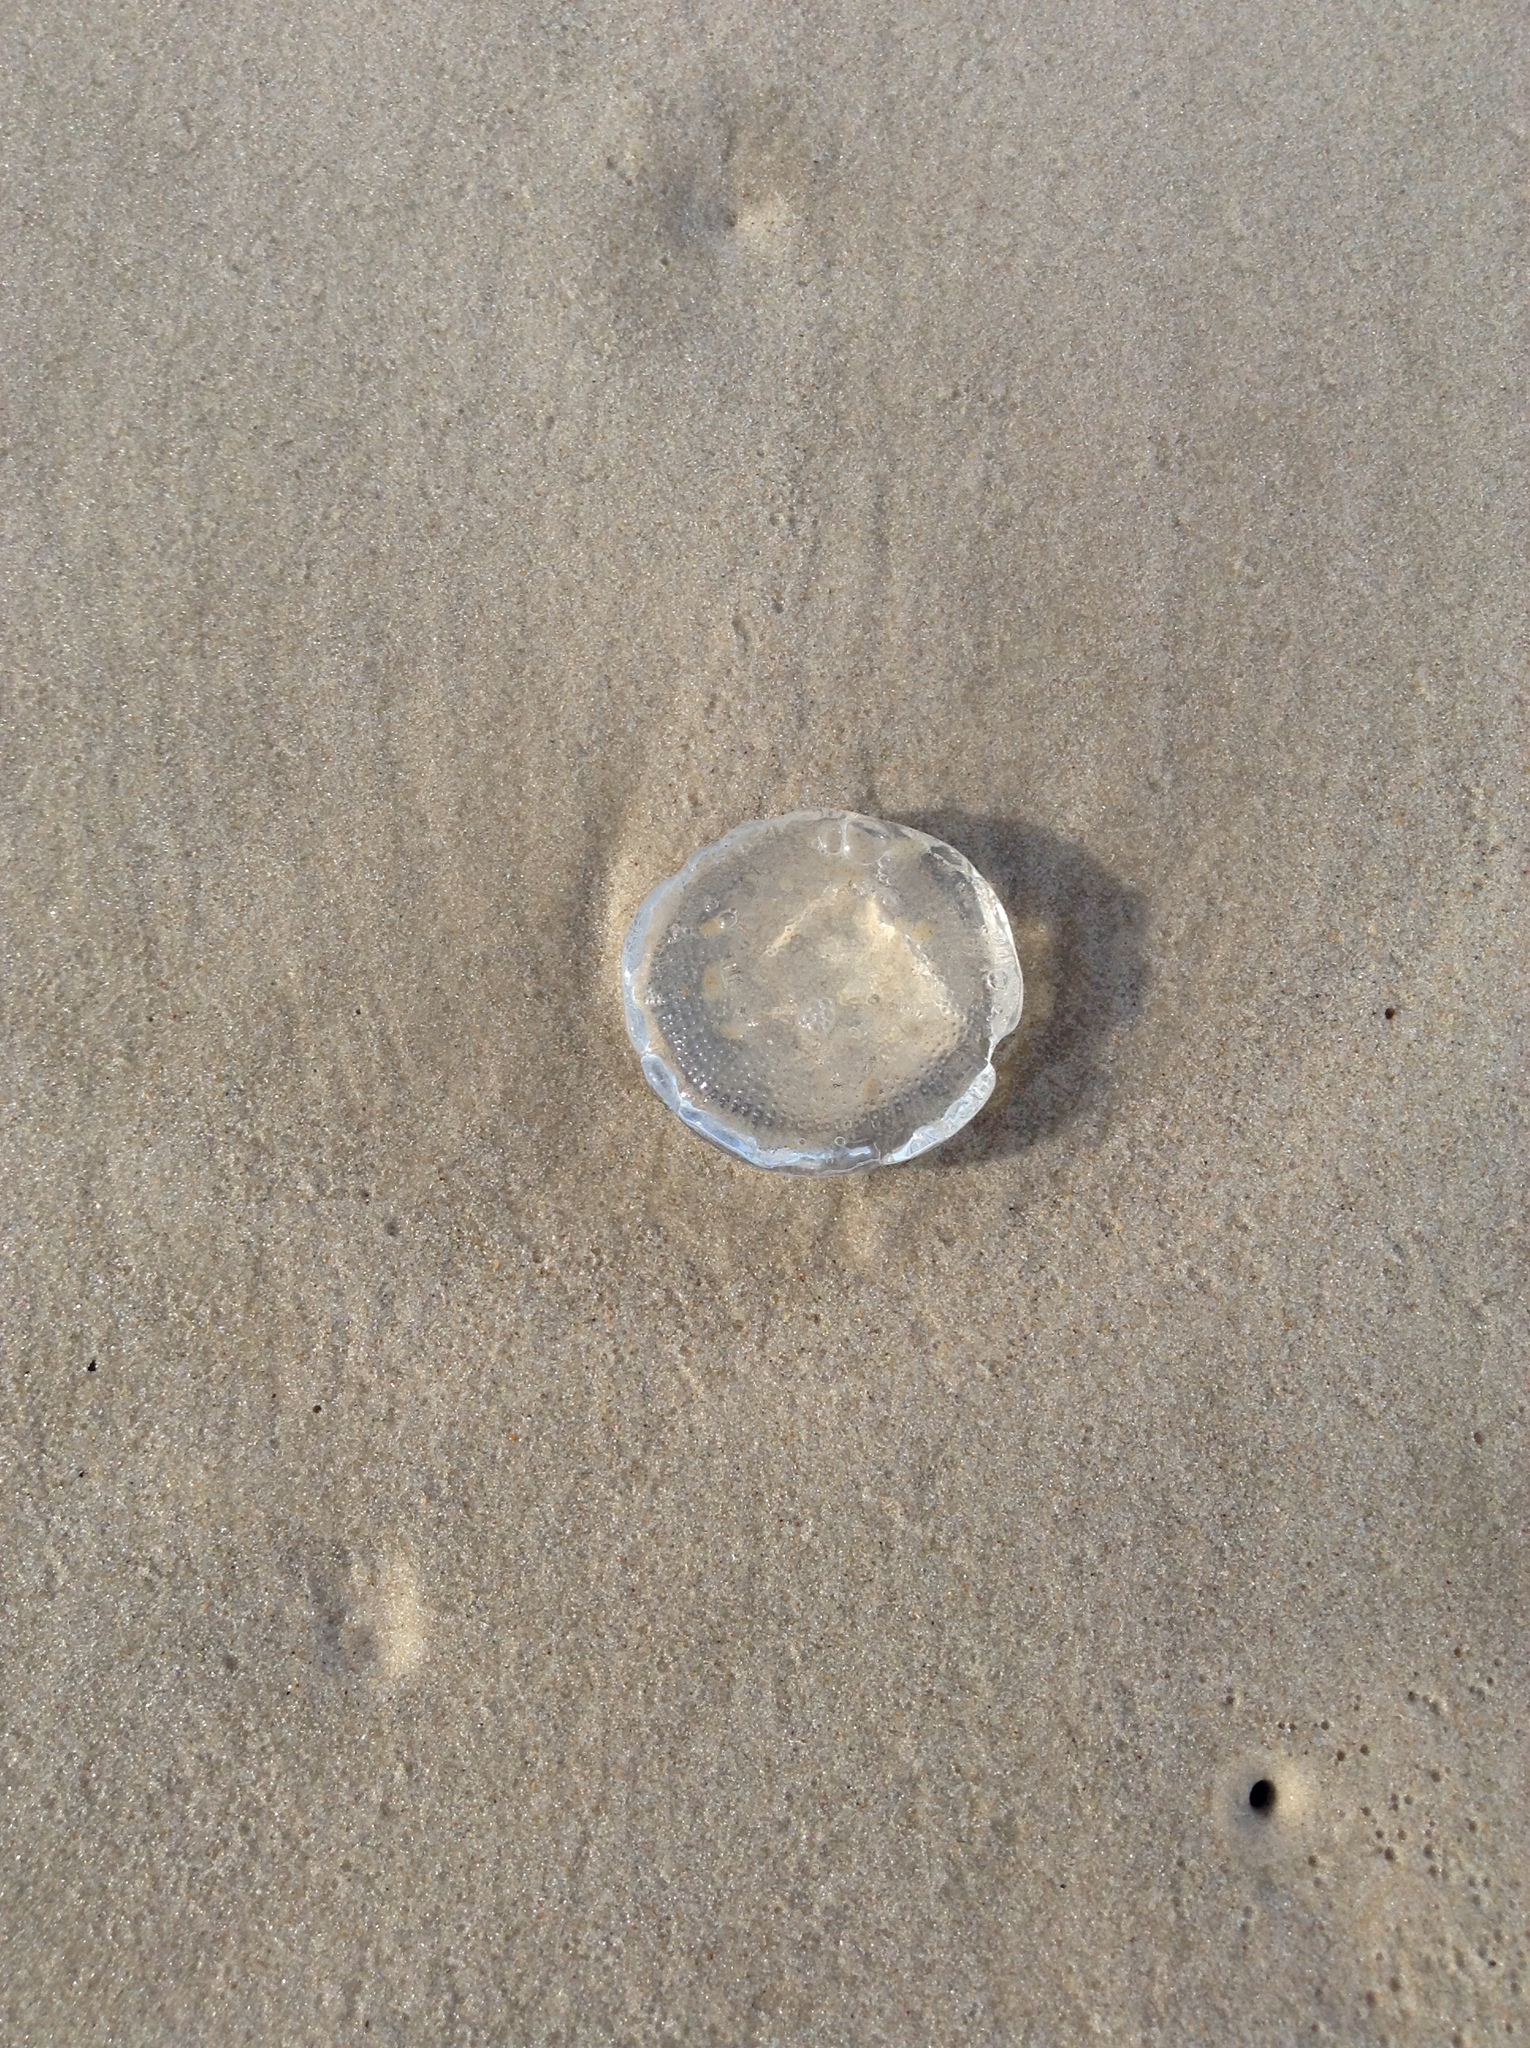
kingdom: Animalia
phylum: Cnidaria
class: Hydrozoa
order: Leptothecata
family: Aequoreidae
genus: Rhacostoma
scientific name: Rhacostoma atlanticum
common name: Lined water jelly
